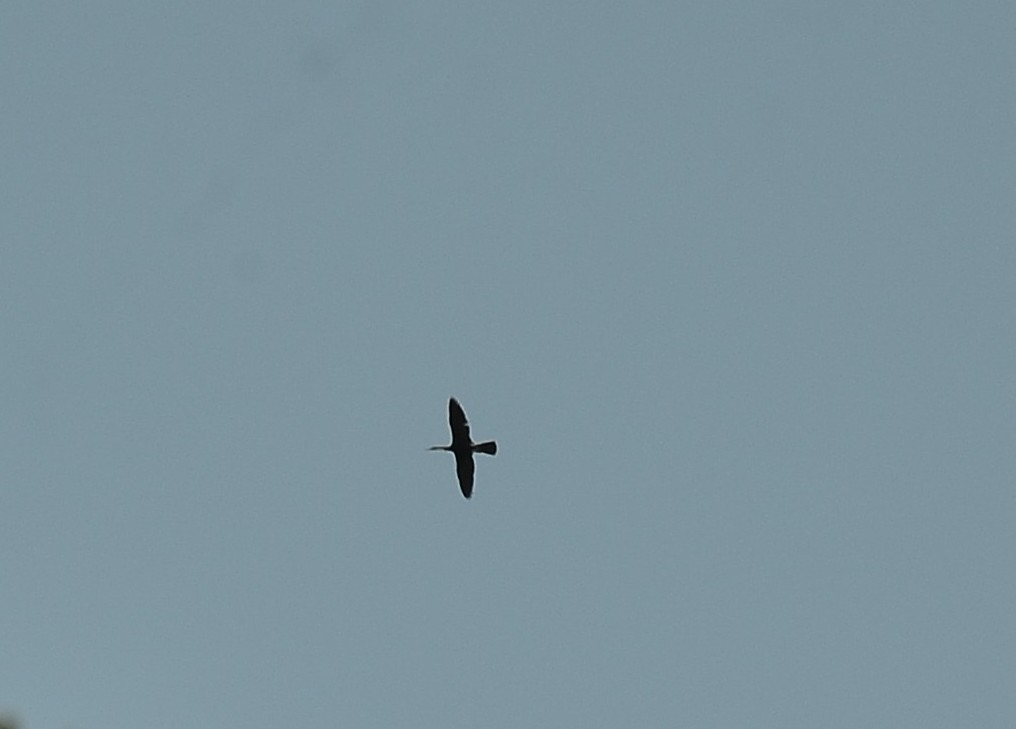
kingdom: Animalia
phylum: Chordata
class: Aves
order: Suliformes
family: Anhingidae
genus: Anhinga
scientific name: Anhinga melanogaster
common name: Oriental darter
